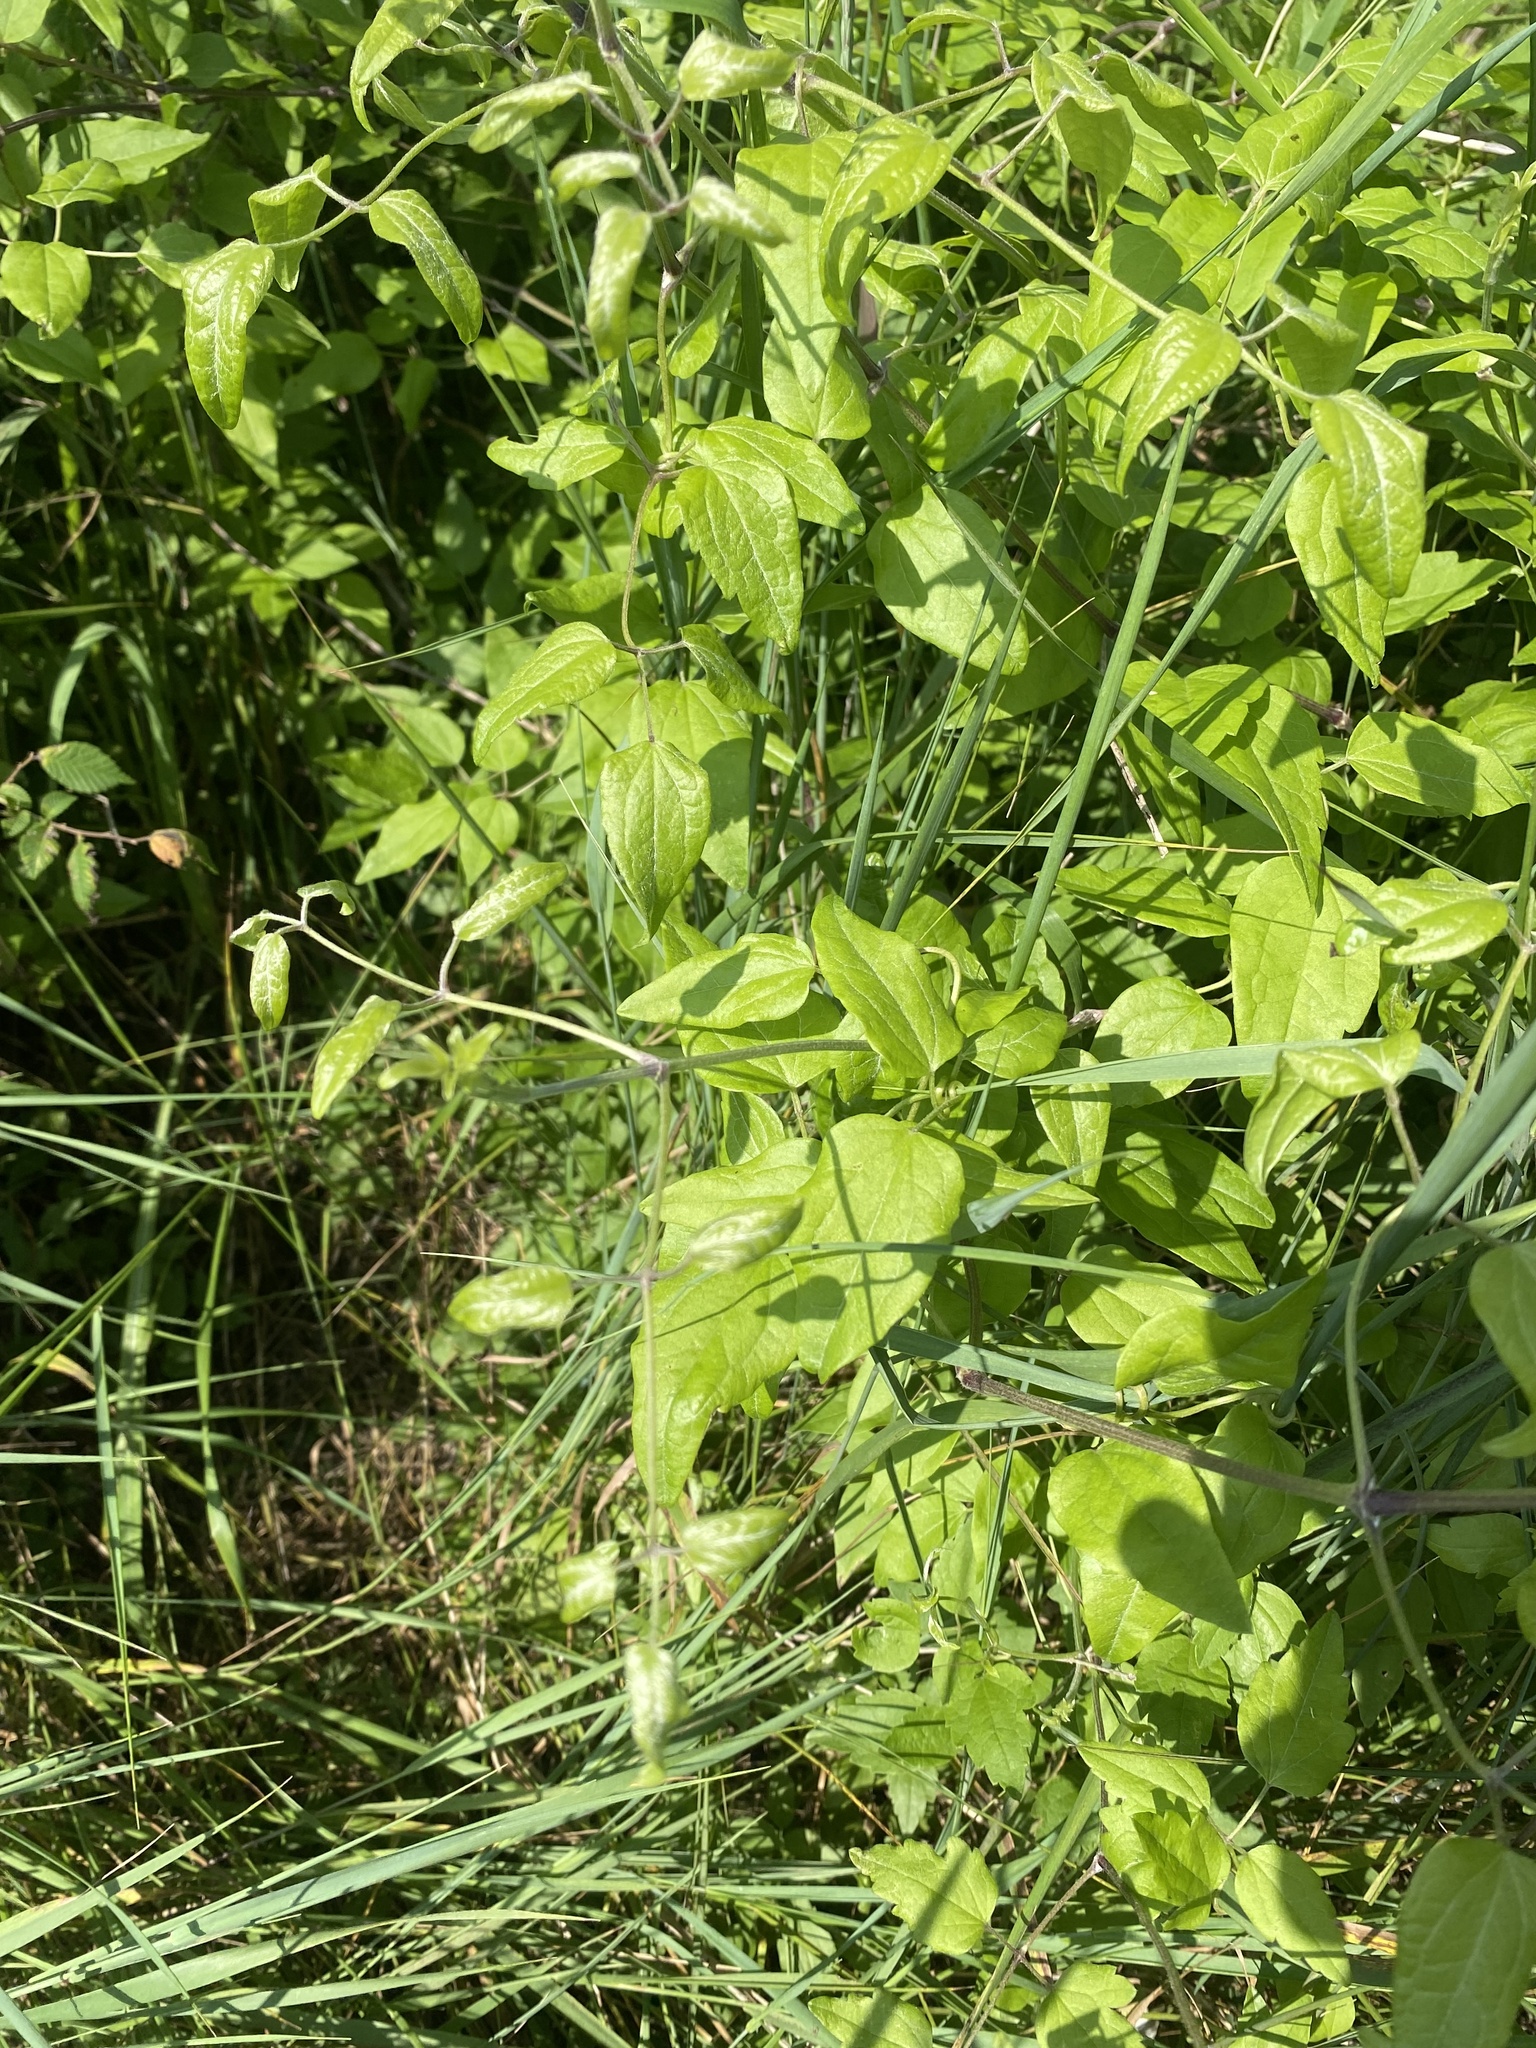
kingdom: Plantae
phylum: Tracheophyta
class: Magnoliopsida
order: Ranunculales
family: Ranunculaceae
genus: Clematis
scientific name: Clematis vitalba
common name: Evergreen clematis
